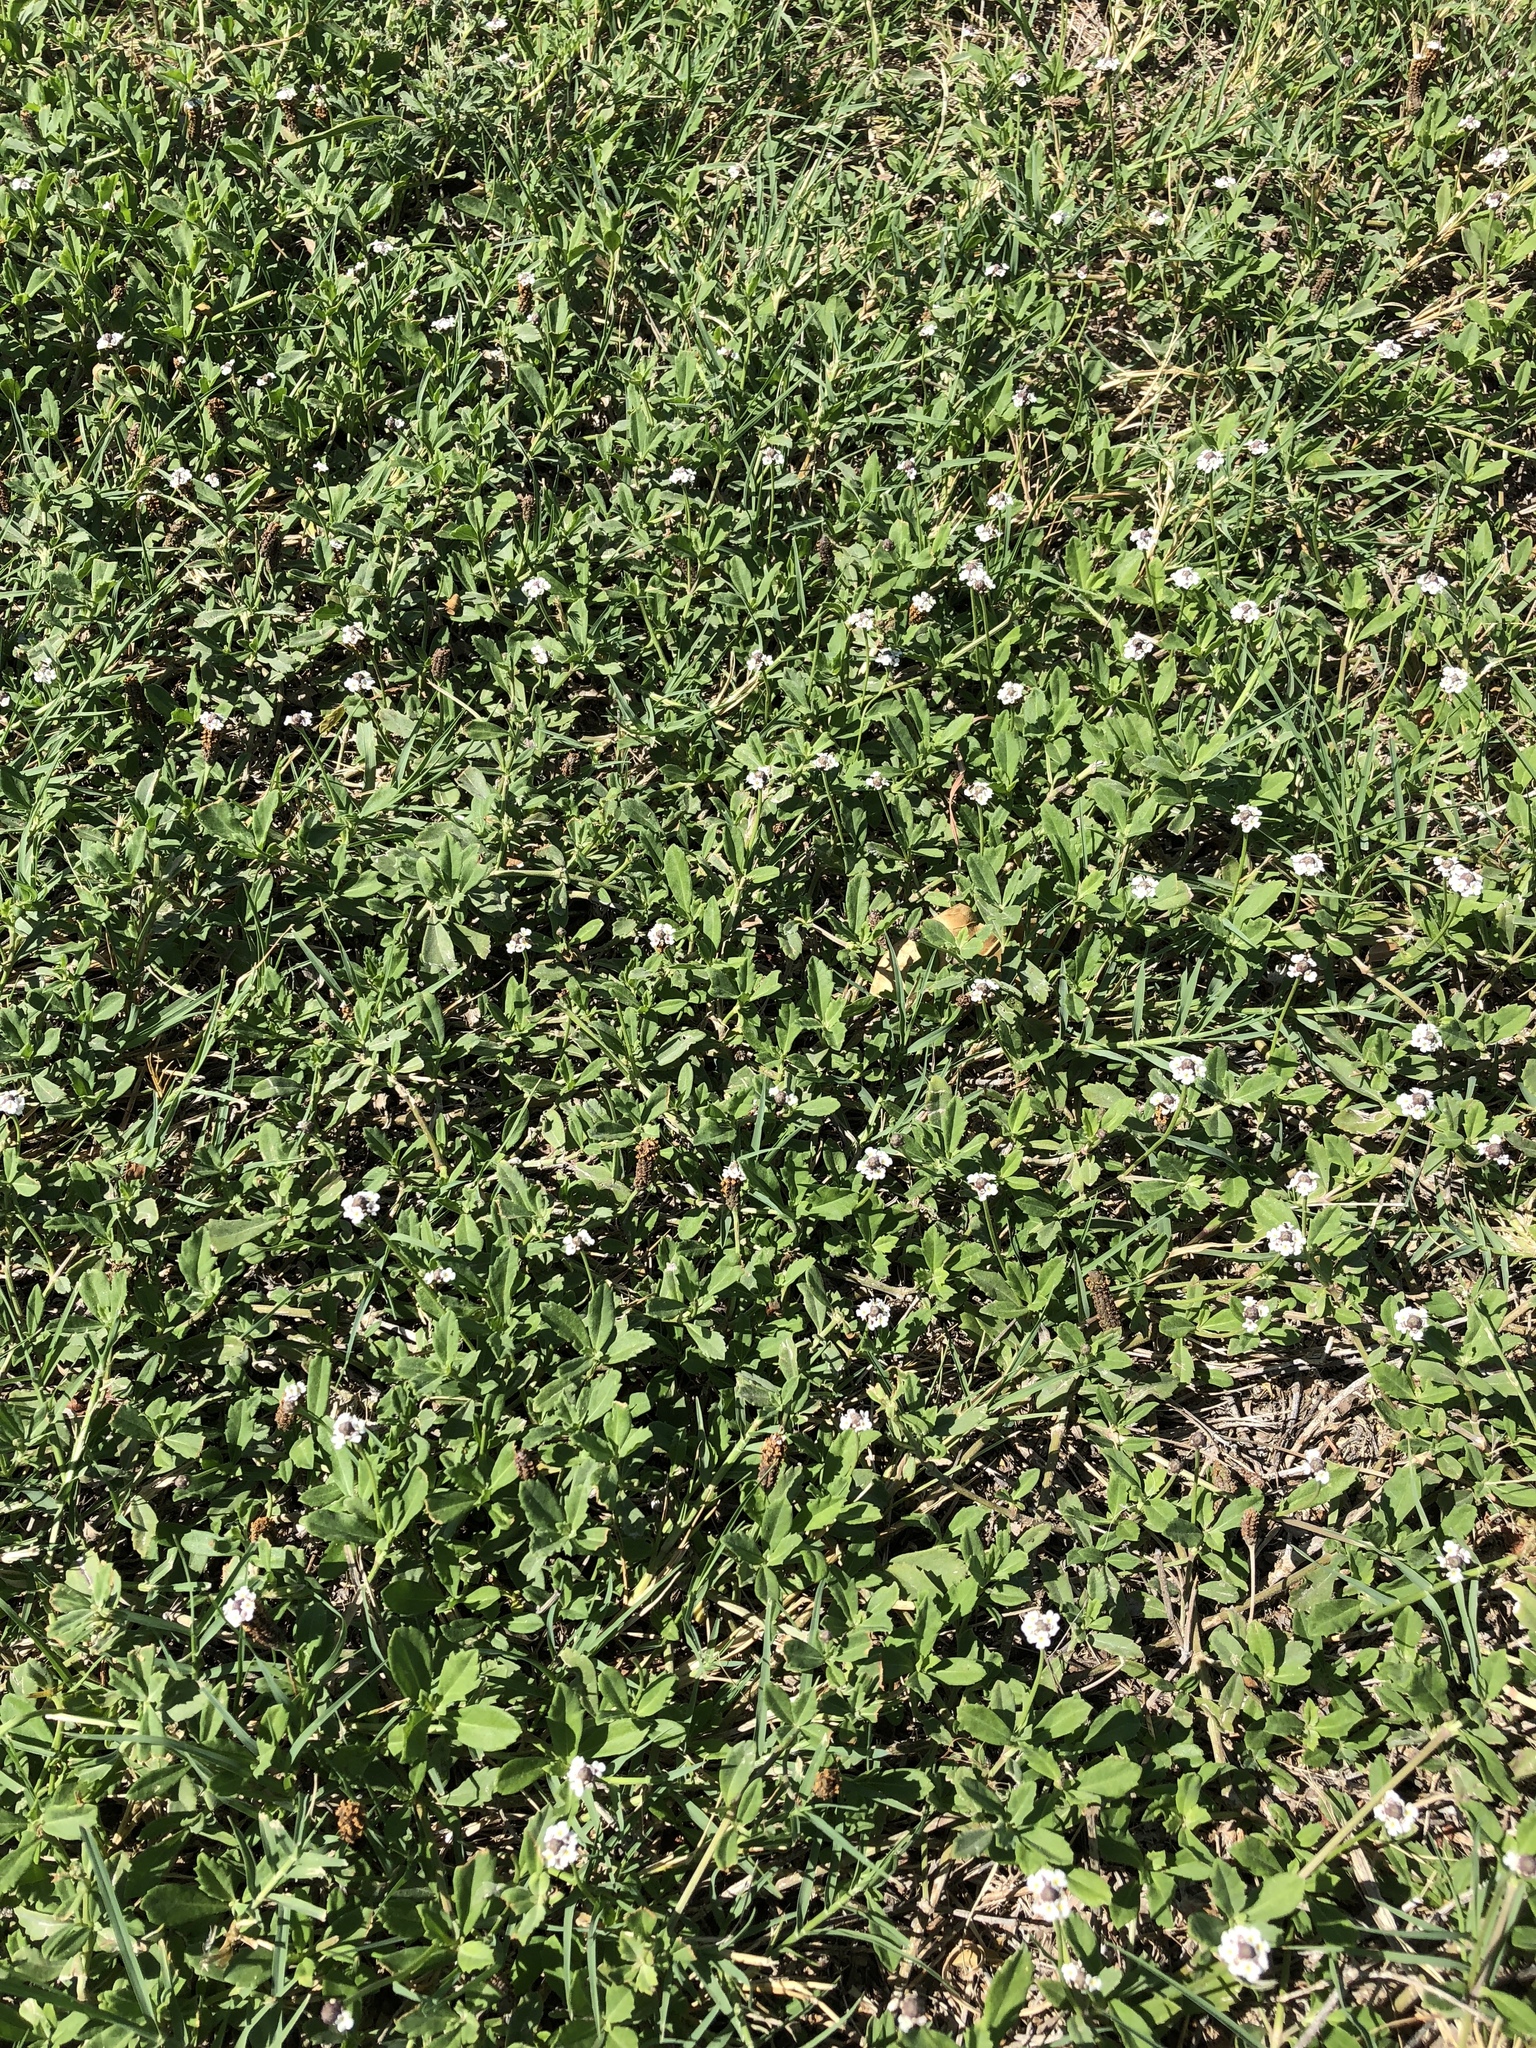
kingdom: Plantae
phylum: Tracheophyta
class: Magnoliopsida
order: Lamiales
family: Verbenaceae
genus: Phyla
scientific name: Phyla nodiflora
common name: Frogfruit
